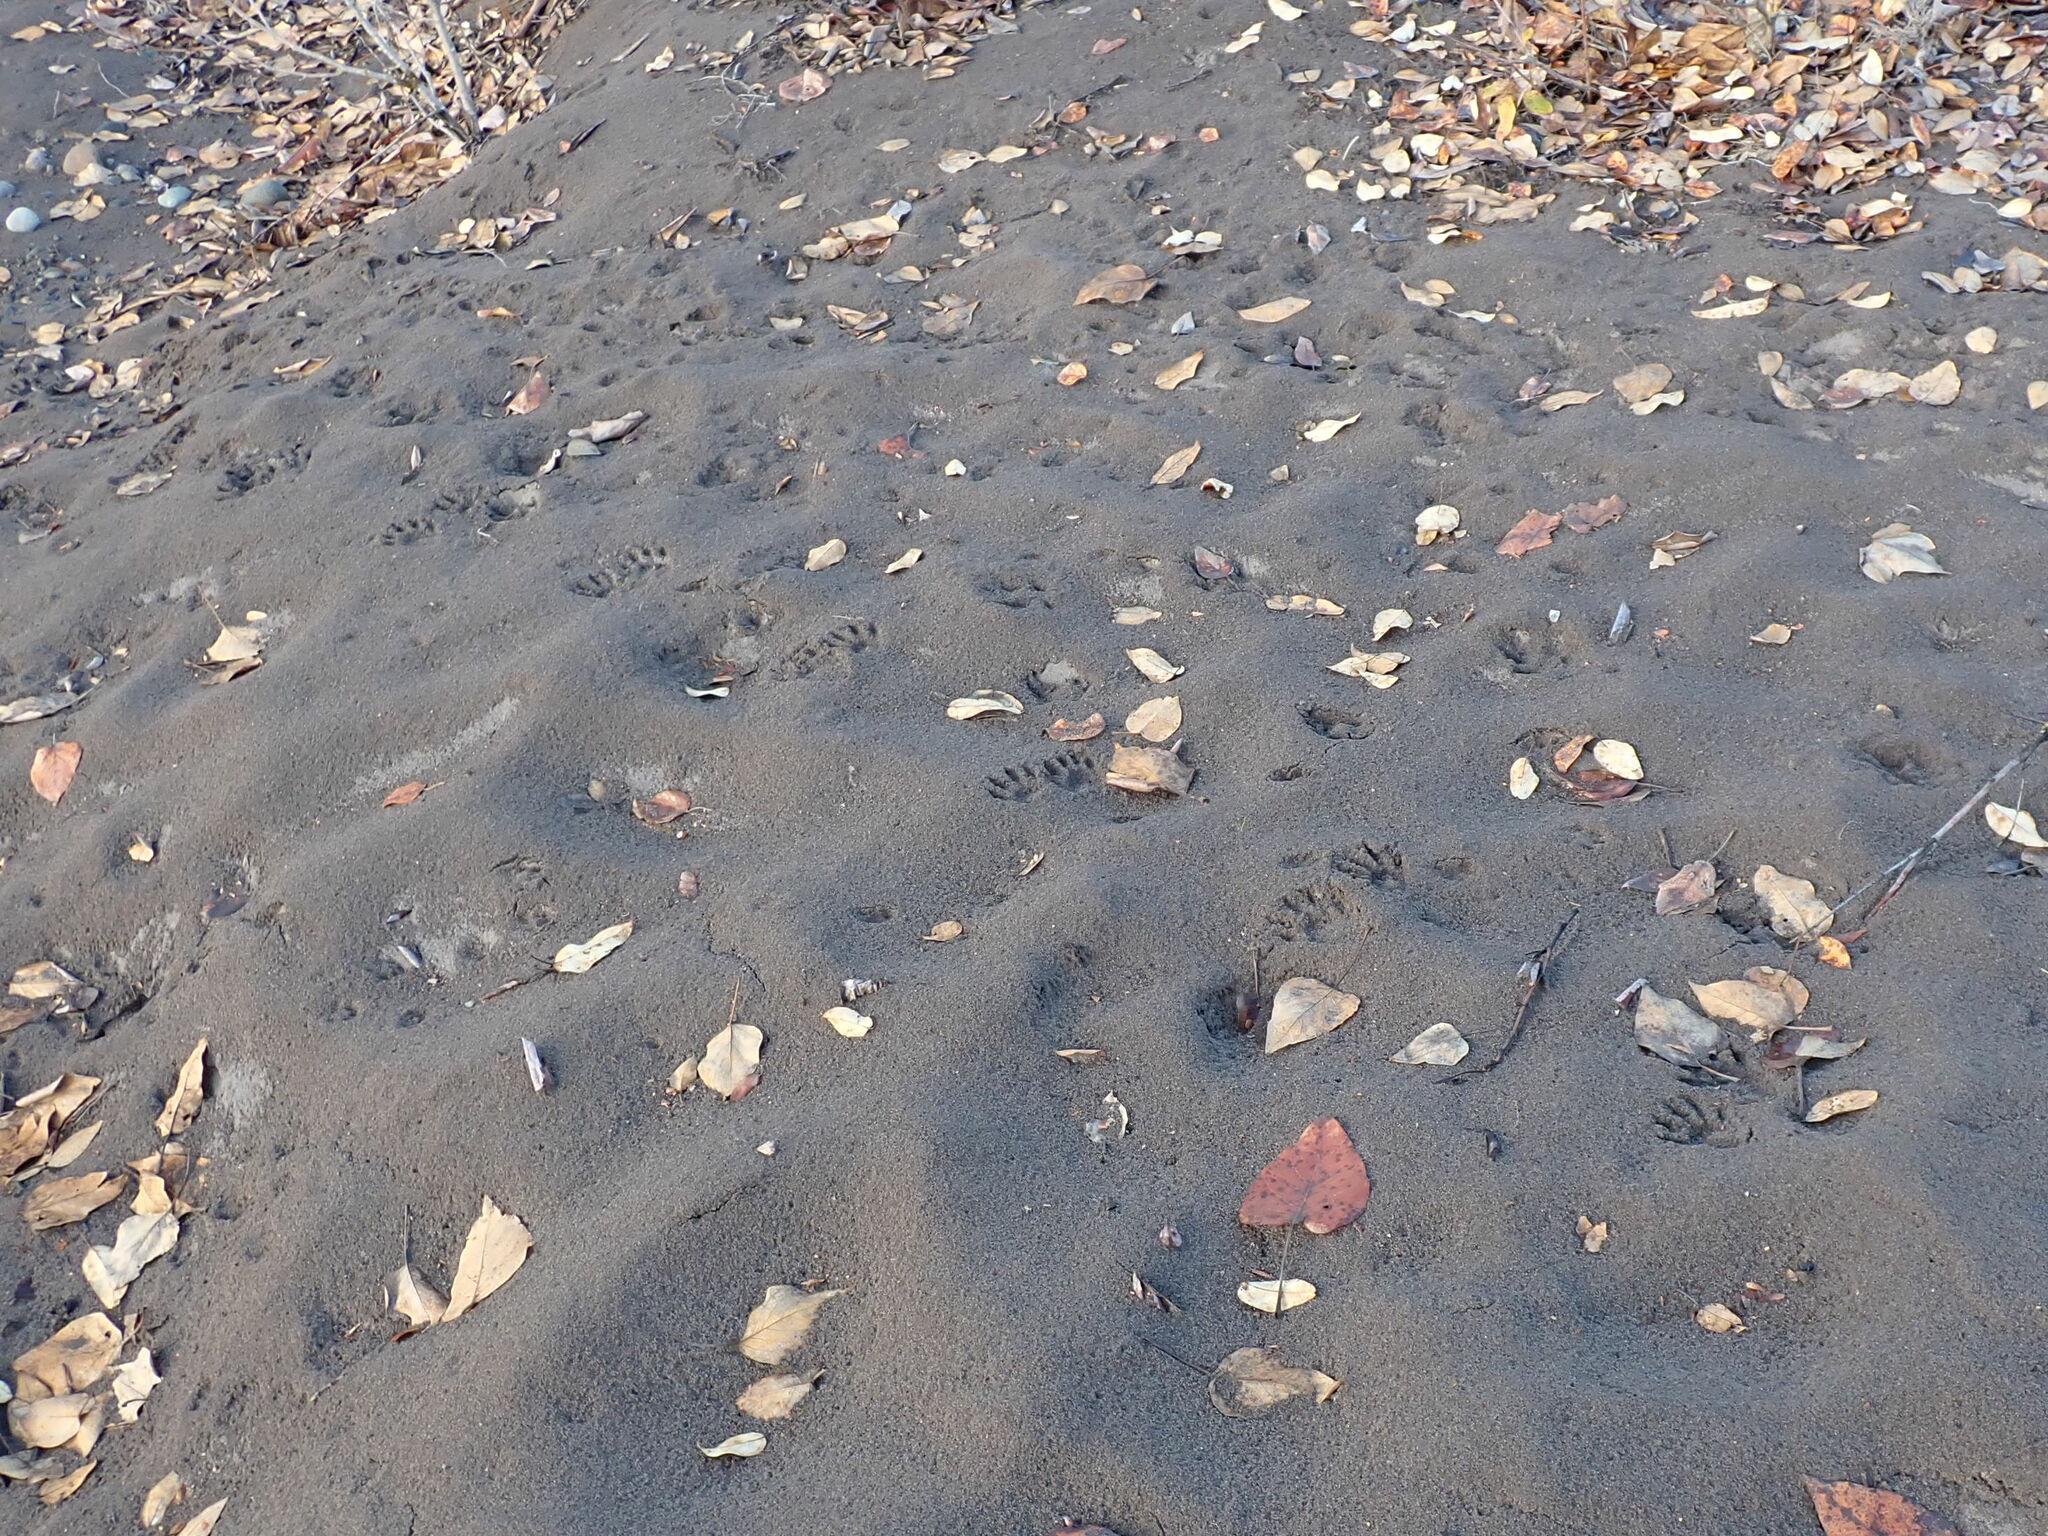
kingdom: Animalia
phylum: Chordata
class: Mammalia
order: Carnivora
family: Procyonidae
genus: Procyon
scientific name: Procyon lotor
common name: Raccoon
